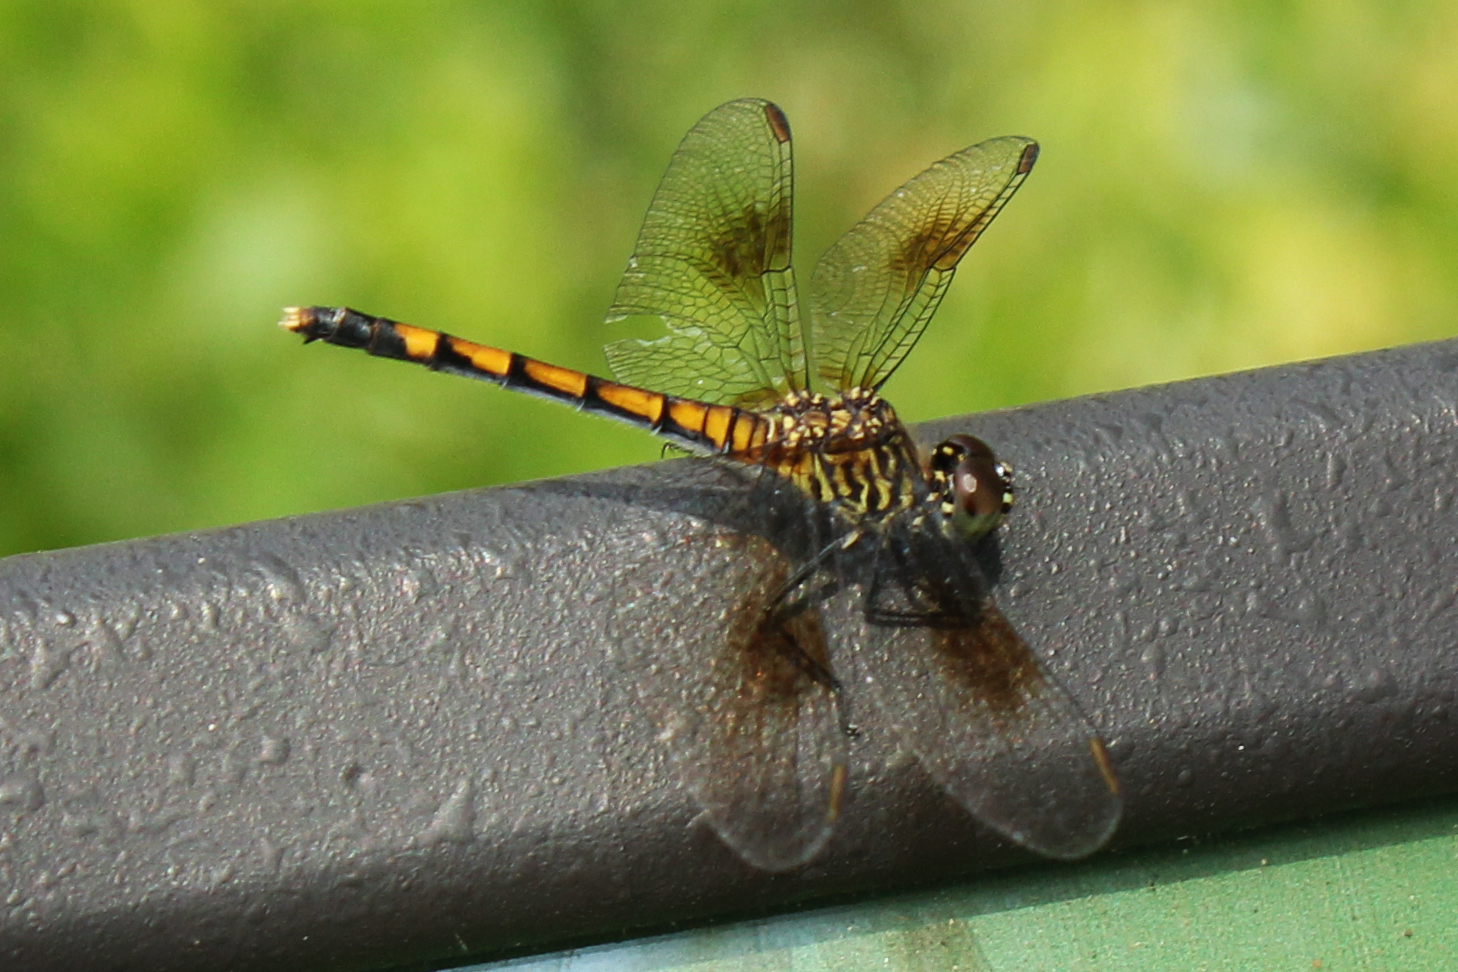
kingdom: Animalia
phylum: Arthropoda
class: Insecta
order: Odonata
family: Libellulidae
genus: Erythrodiplax
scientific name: Erythrodiplax berenice
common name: Seaside dragonlet
